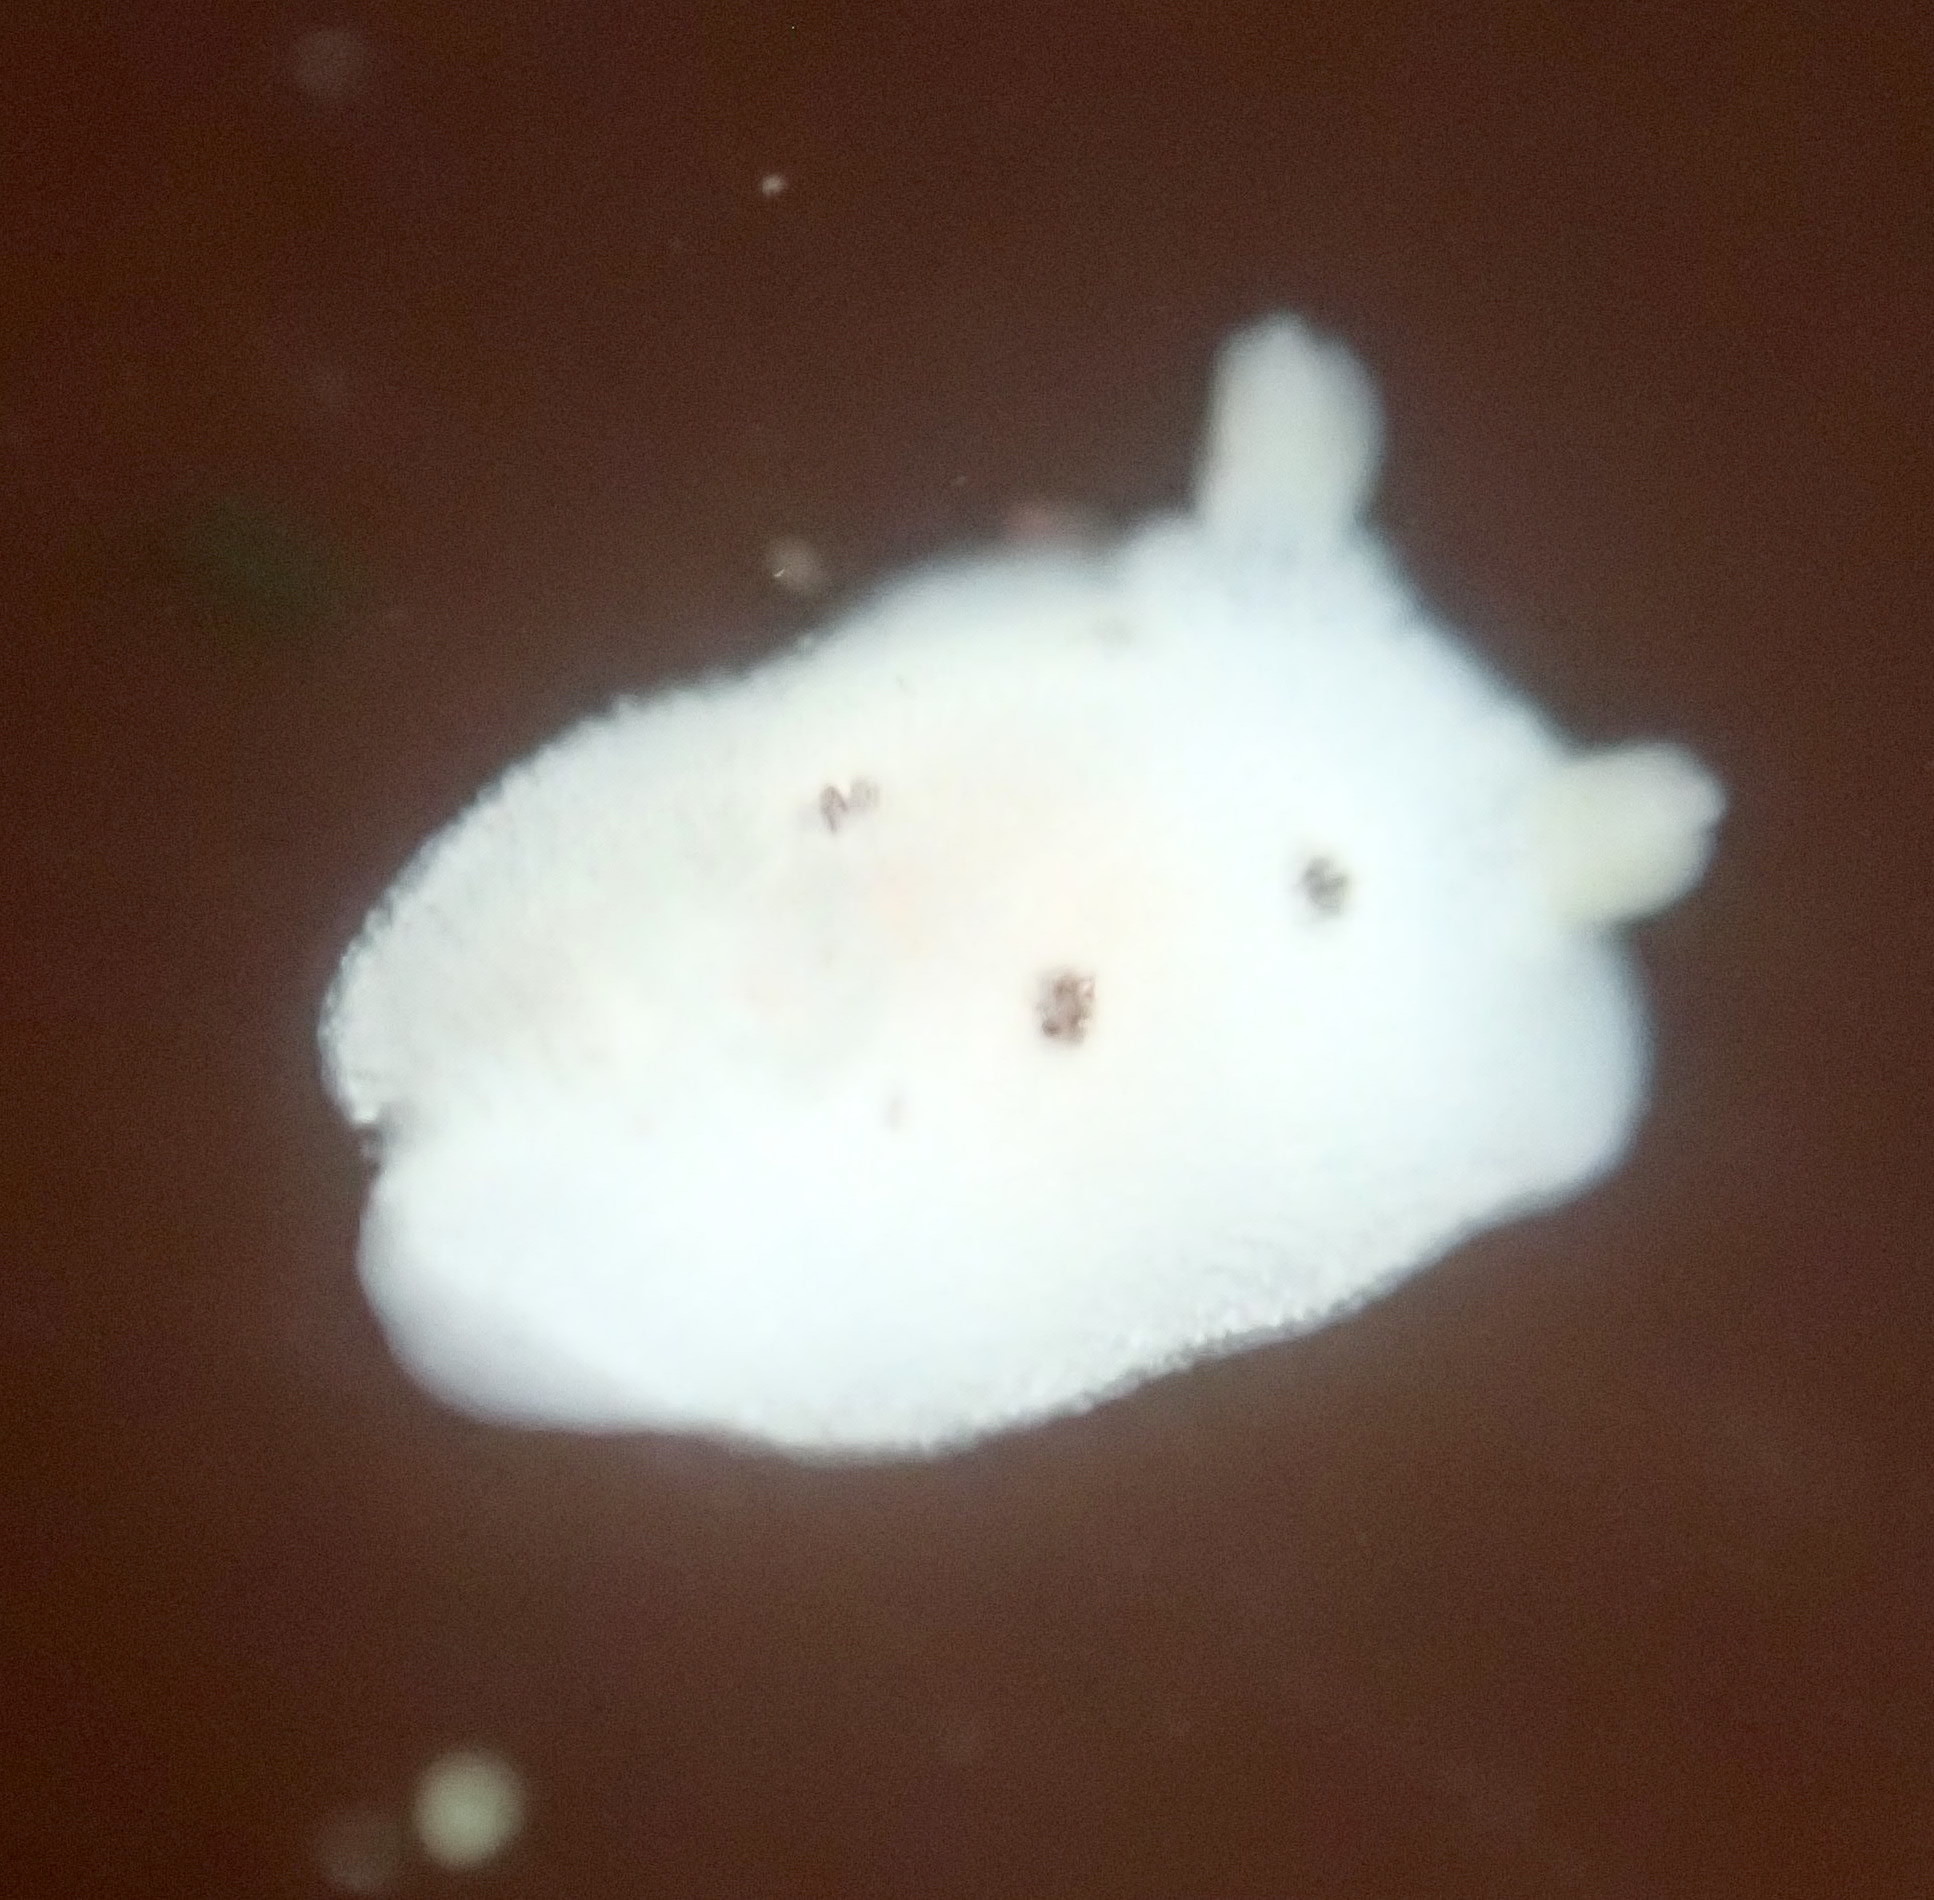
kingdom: Animalia
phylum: Mollusca
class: Gastropoda
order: Nudibranchia
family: Discodorididae
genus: Diaulula
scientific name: Diaulula sandiegensis
